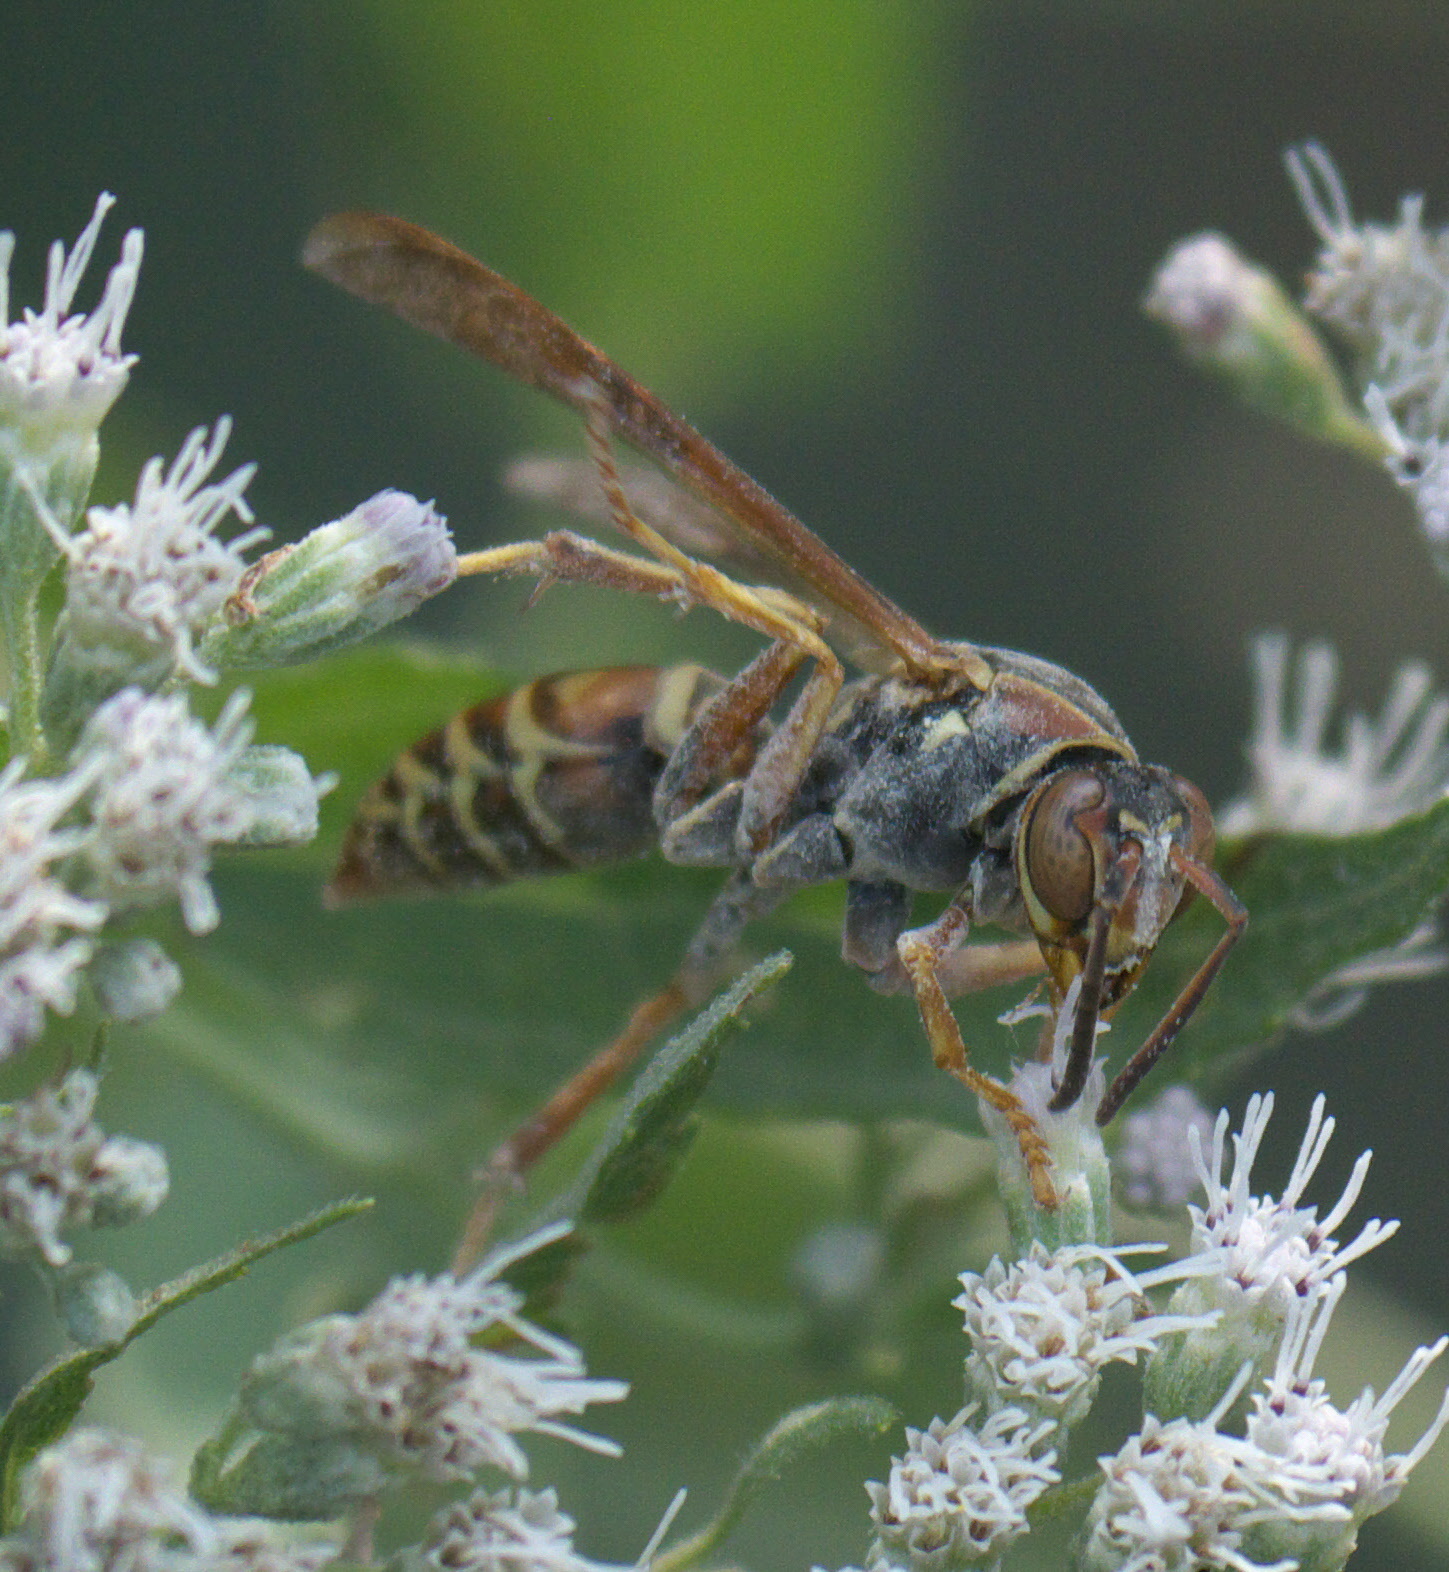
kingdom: Animalia
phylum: Arthropoda
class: Insecta
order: Hymenoptera
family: Eumenidae
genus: Polistes
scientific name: Polistes fuscatus
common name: Dark paper wasp
